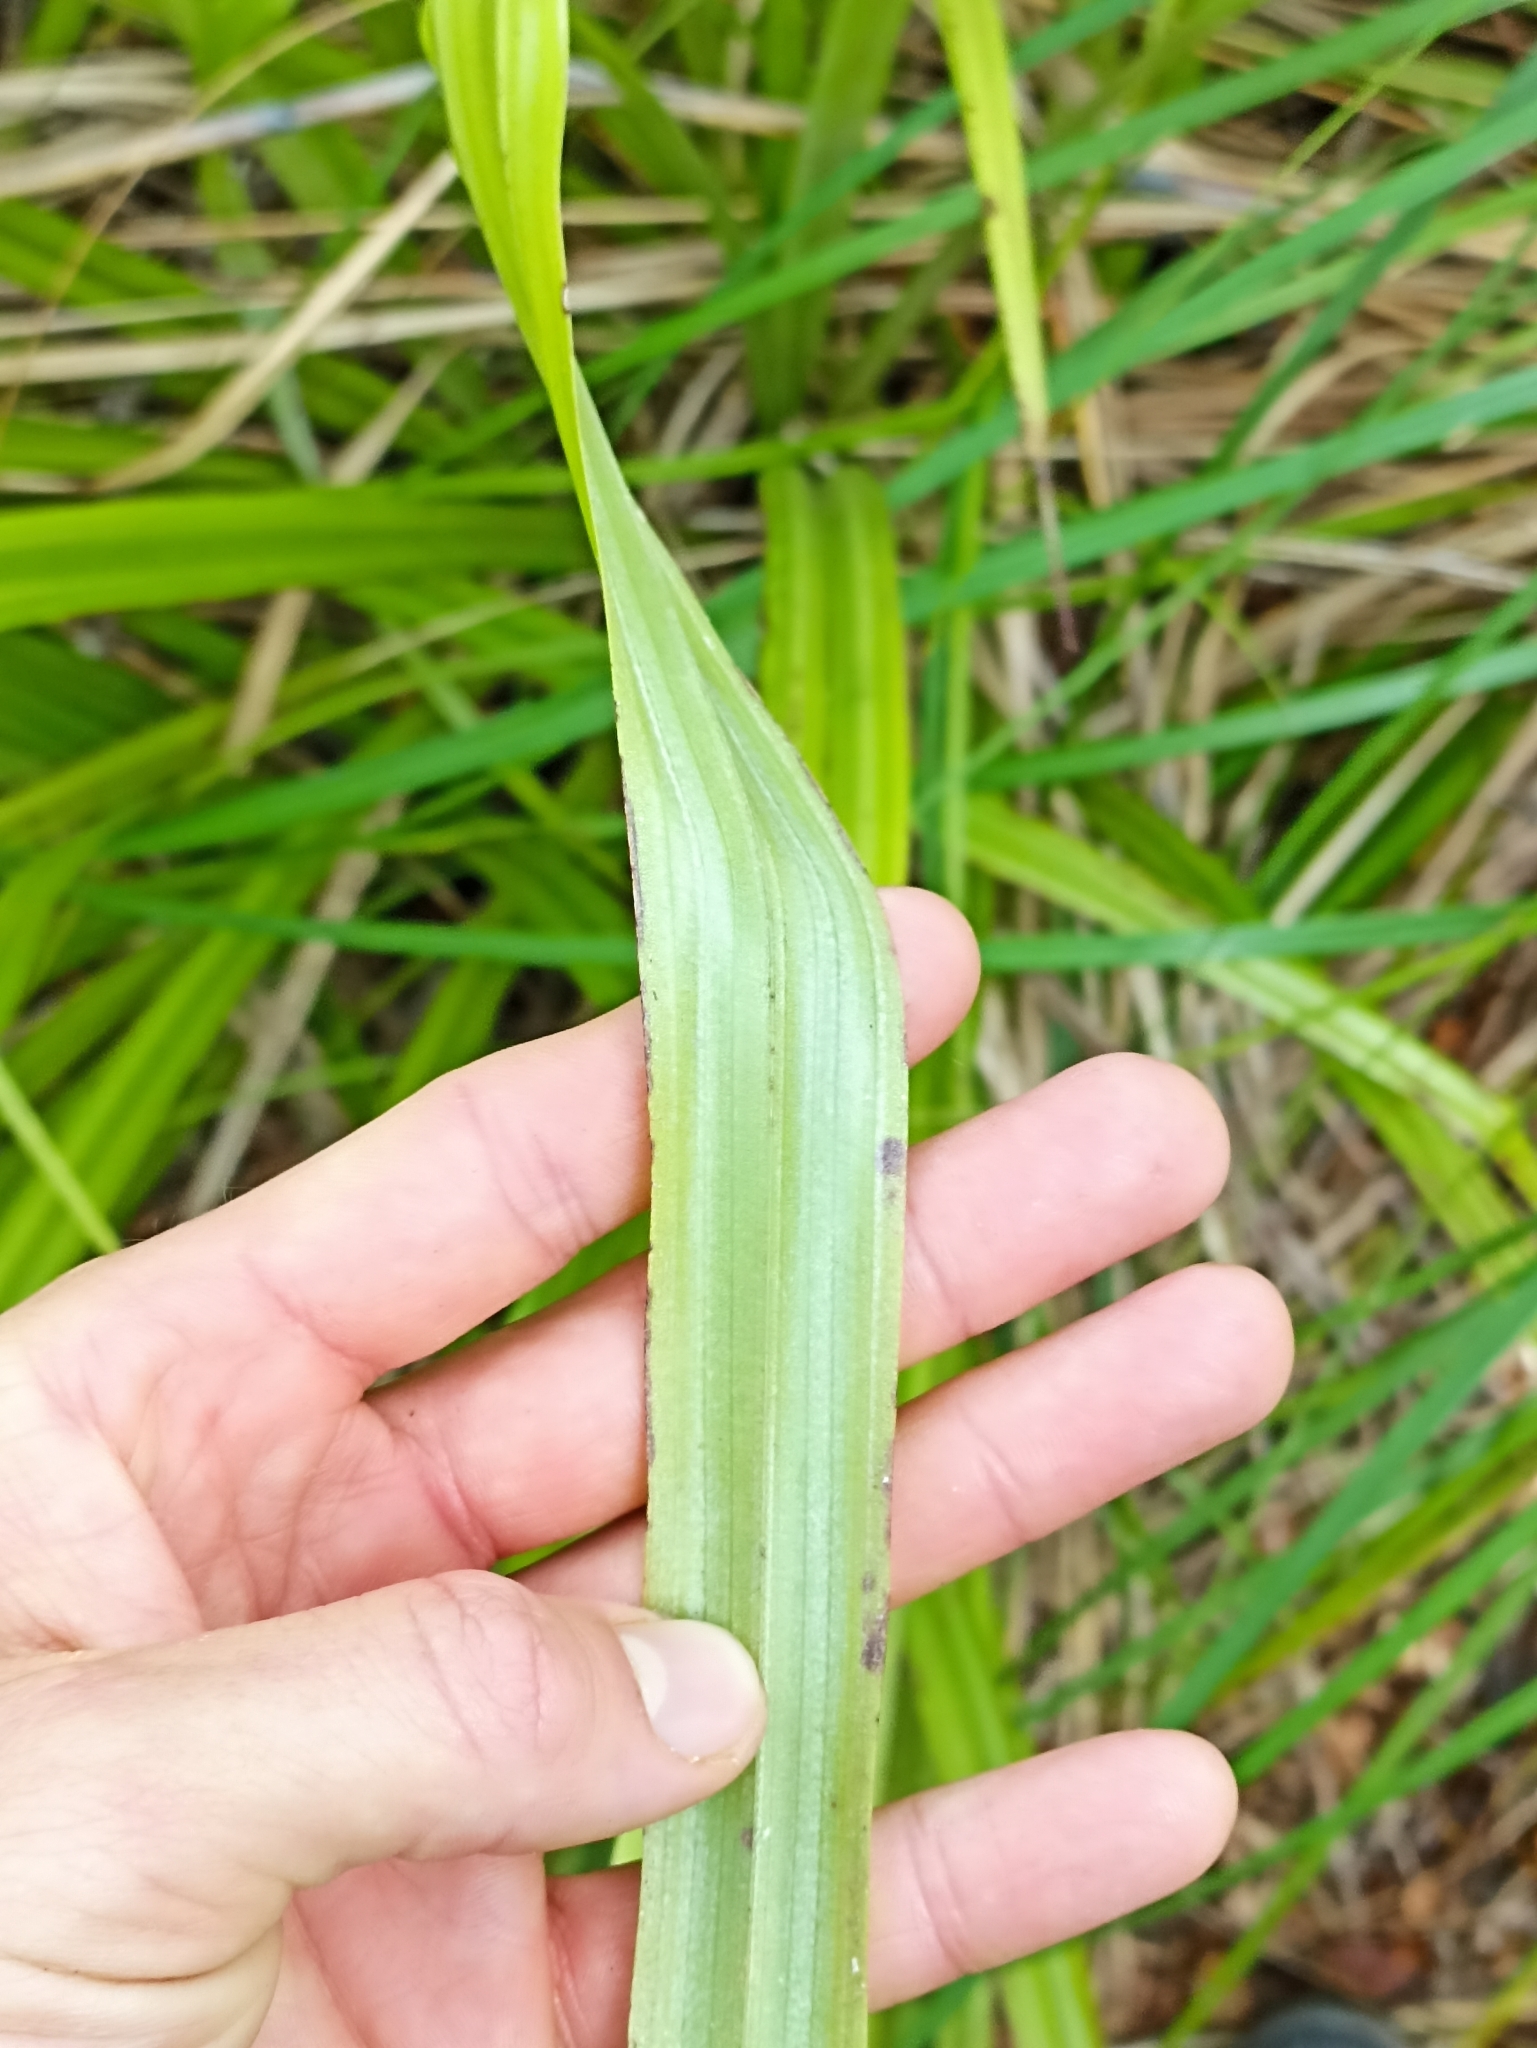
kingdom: Plantae
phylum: Tracheophyta
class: Liliopsida
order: Asparagales
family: Asteliaceae
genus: Astelia
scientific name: Astelia trinervia
